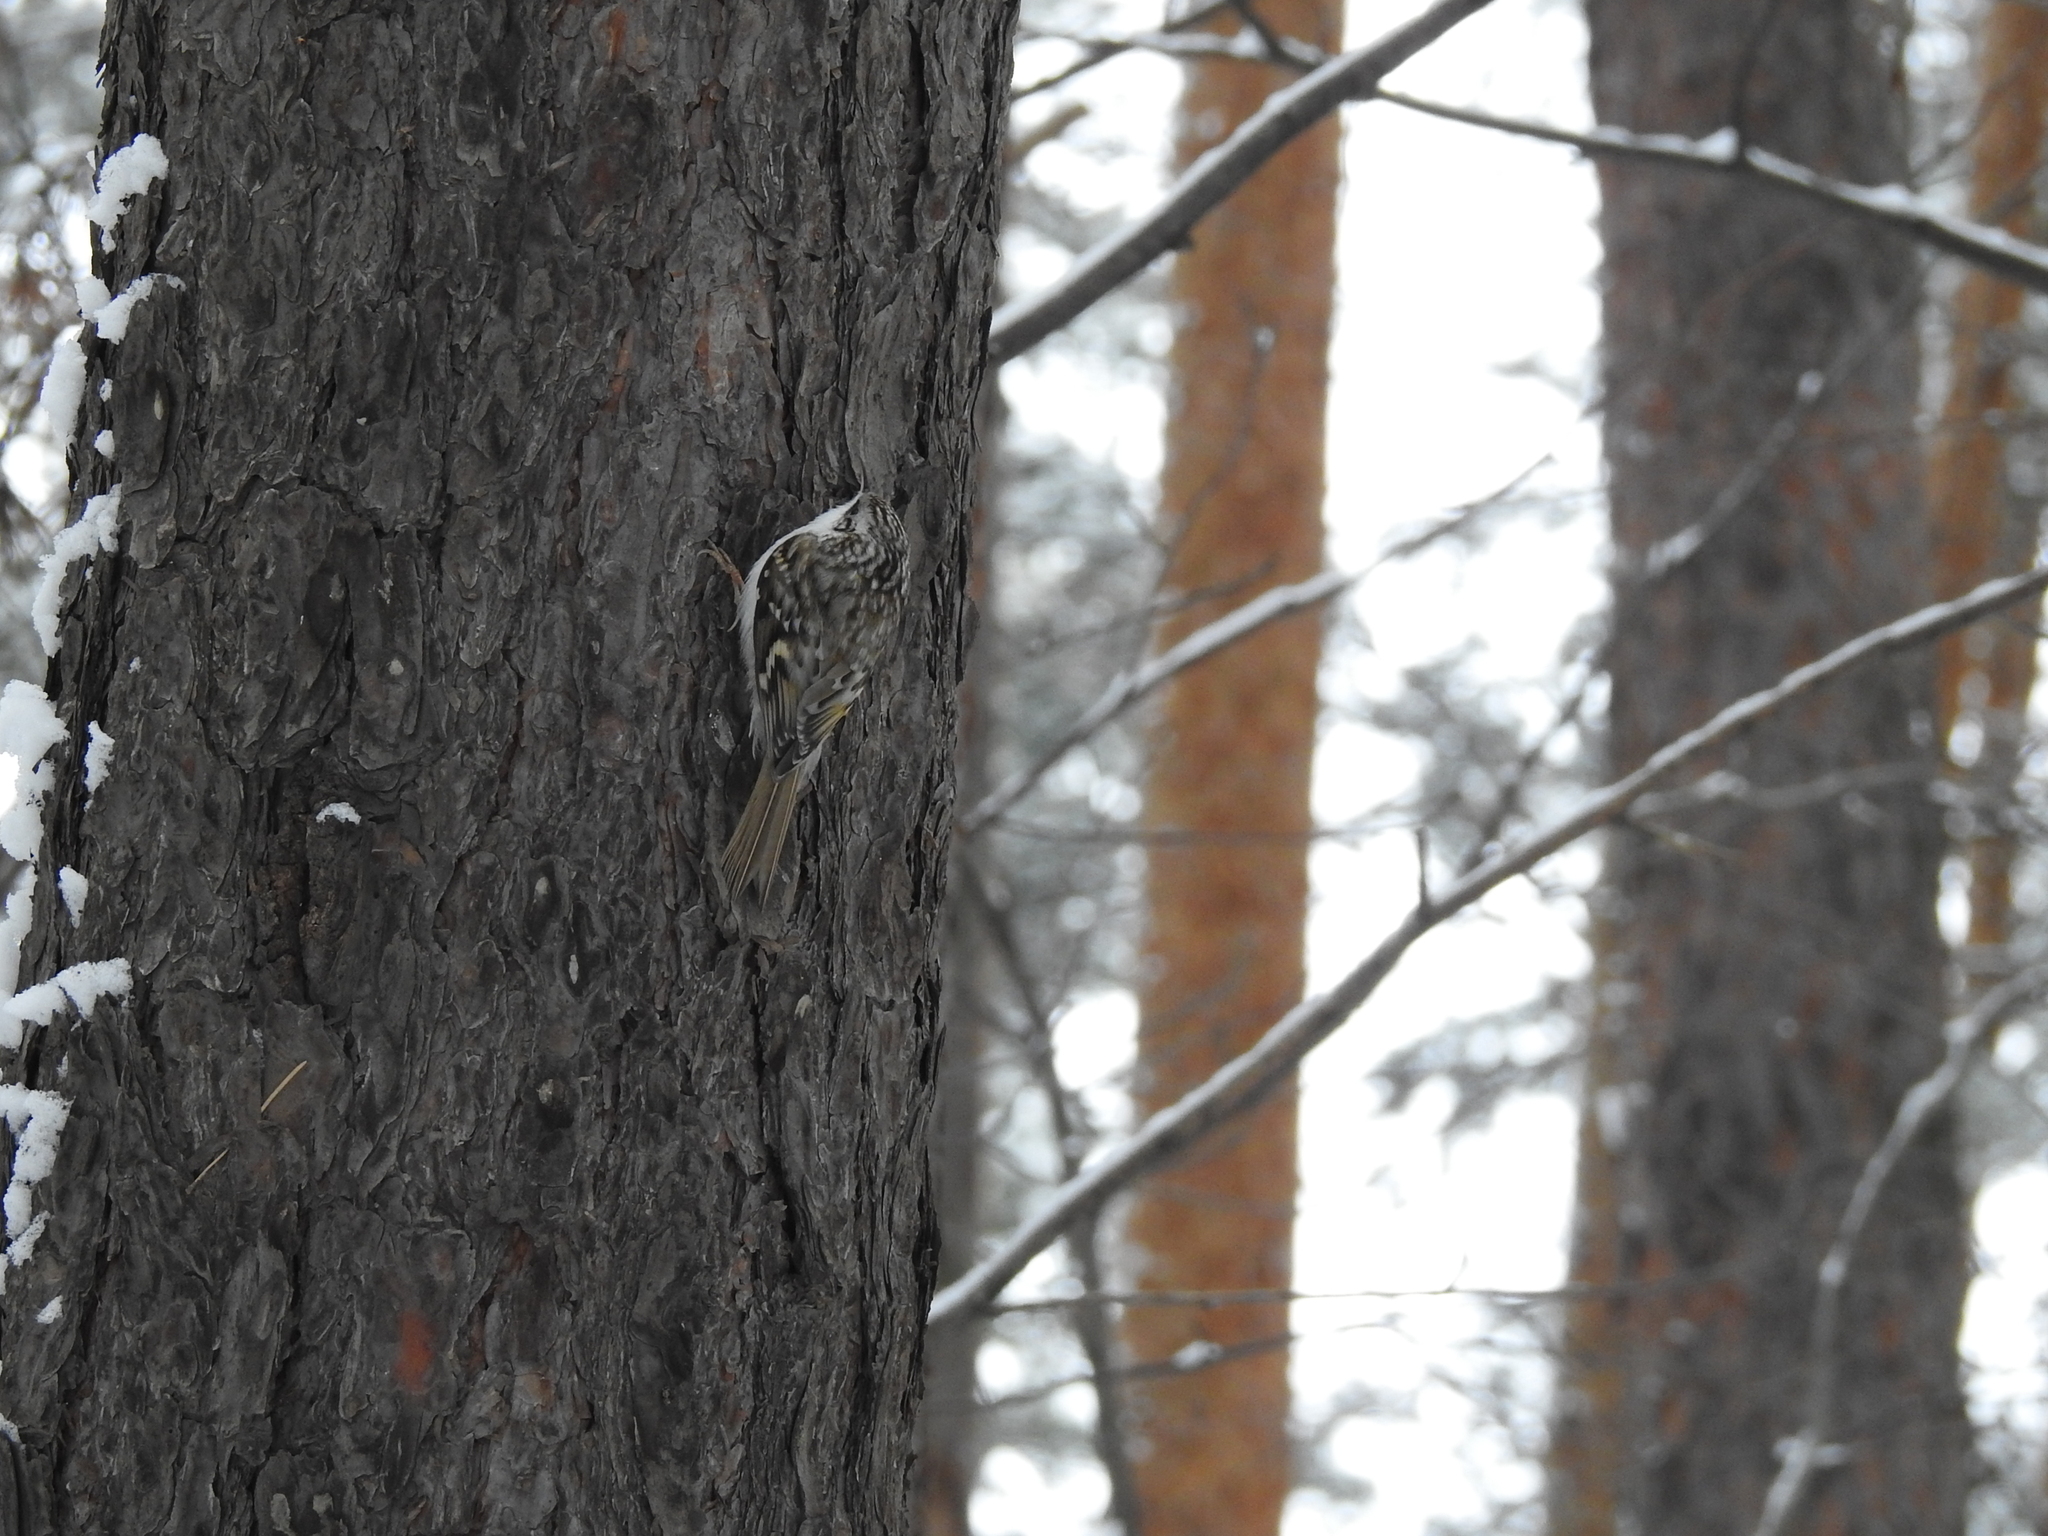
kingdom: Animalia
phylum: Chordata
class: Aves
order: Passeriformes
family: Certhiidae
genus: Certhia
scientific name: Certhia familiaris
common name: Eurasian treecreeper
